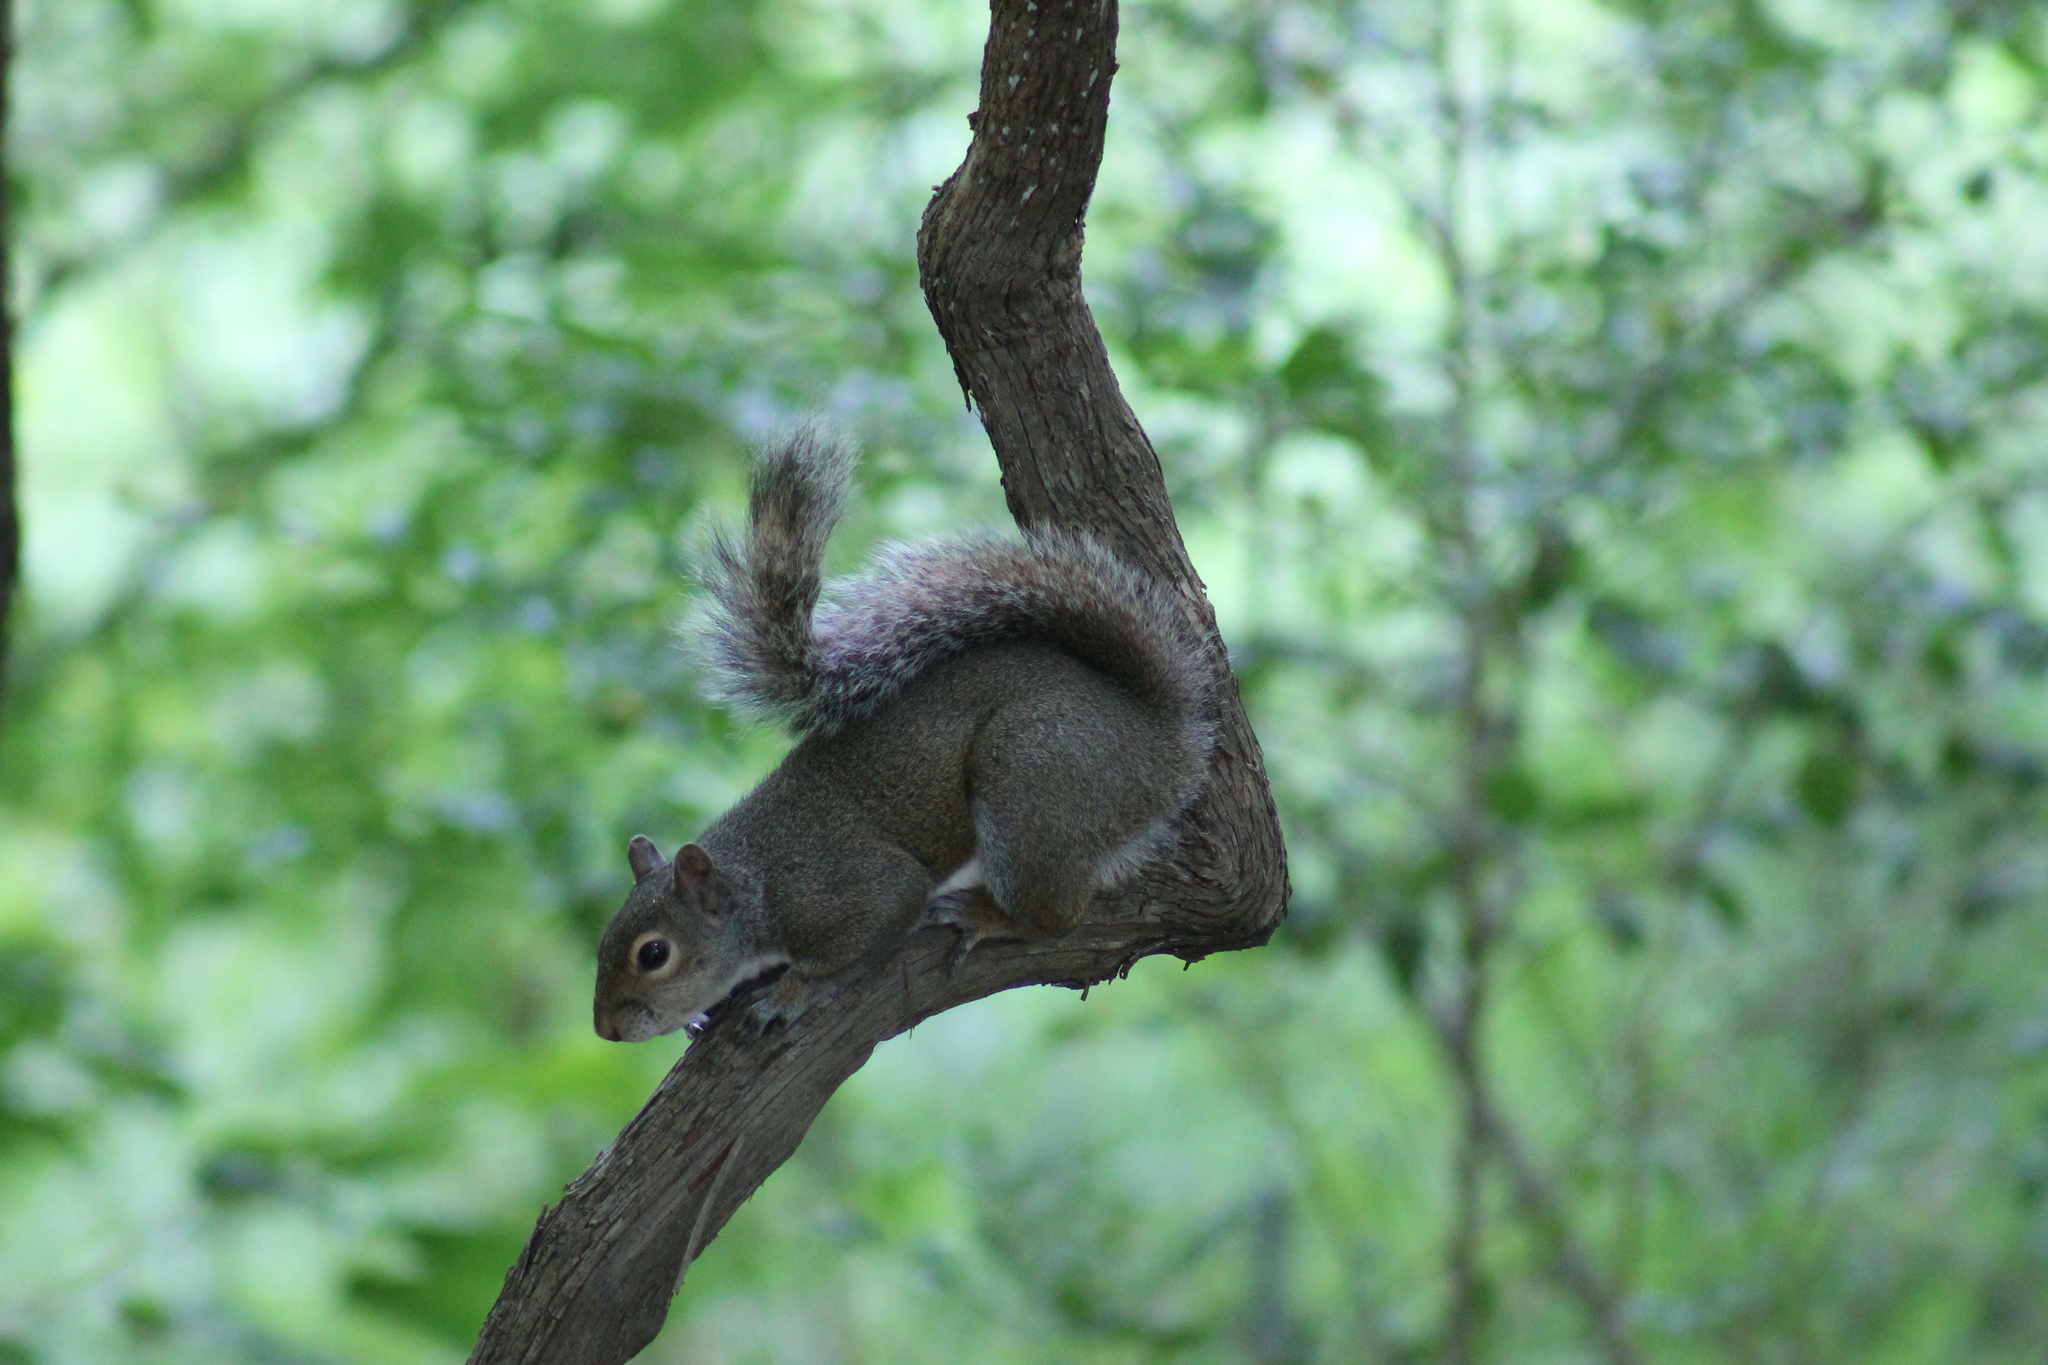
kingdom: Animalia
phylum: Chordata
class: Mammalia
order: Rodentia
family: Sciuridae
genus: Sciurus
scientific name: Sciurus carolinensis
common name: Eastern gray squirrel
